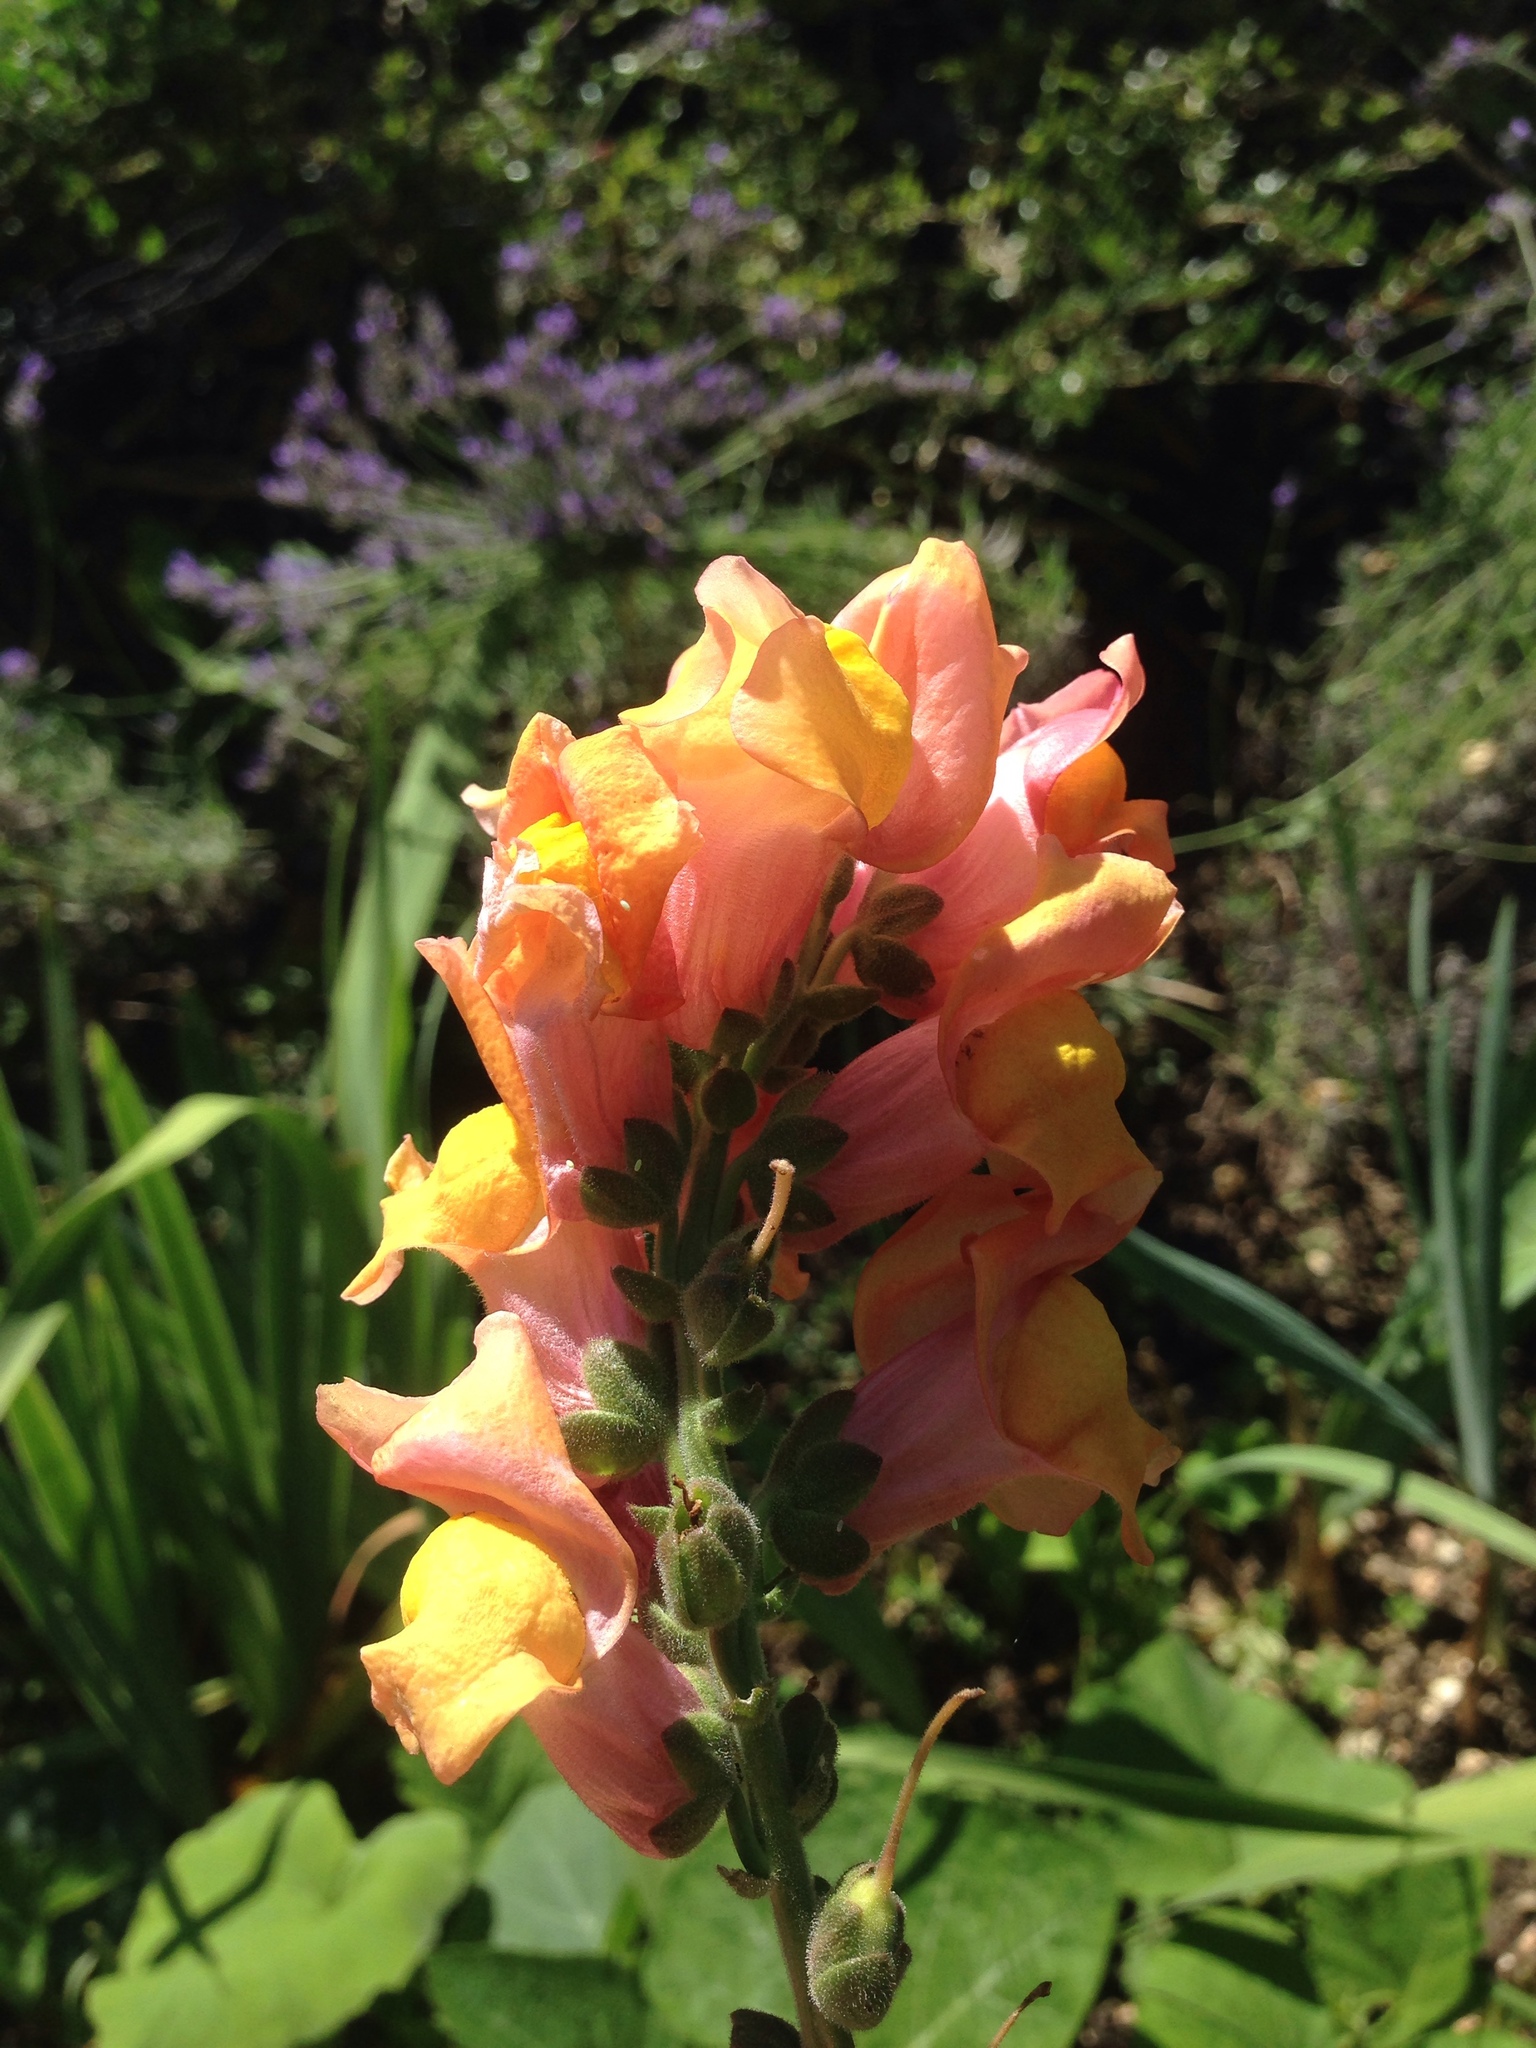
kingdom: Plantae
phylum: Tracheophyta
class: Magnoliopsida
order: Lamiales
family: Plantaginaceae
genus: Antirrhinum
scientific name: Antirrhinum majus
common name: Snapdragon
